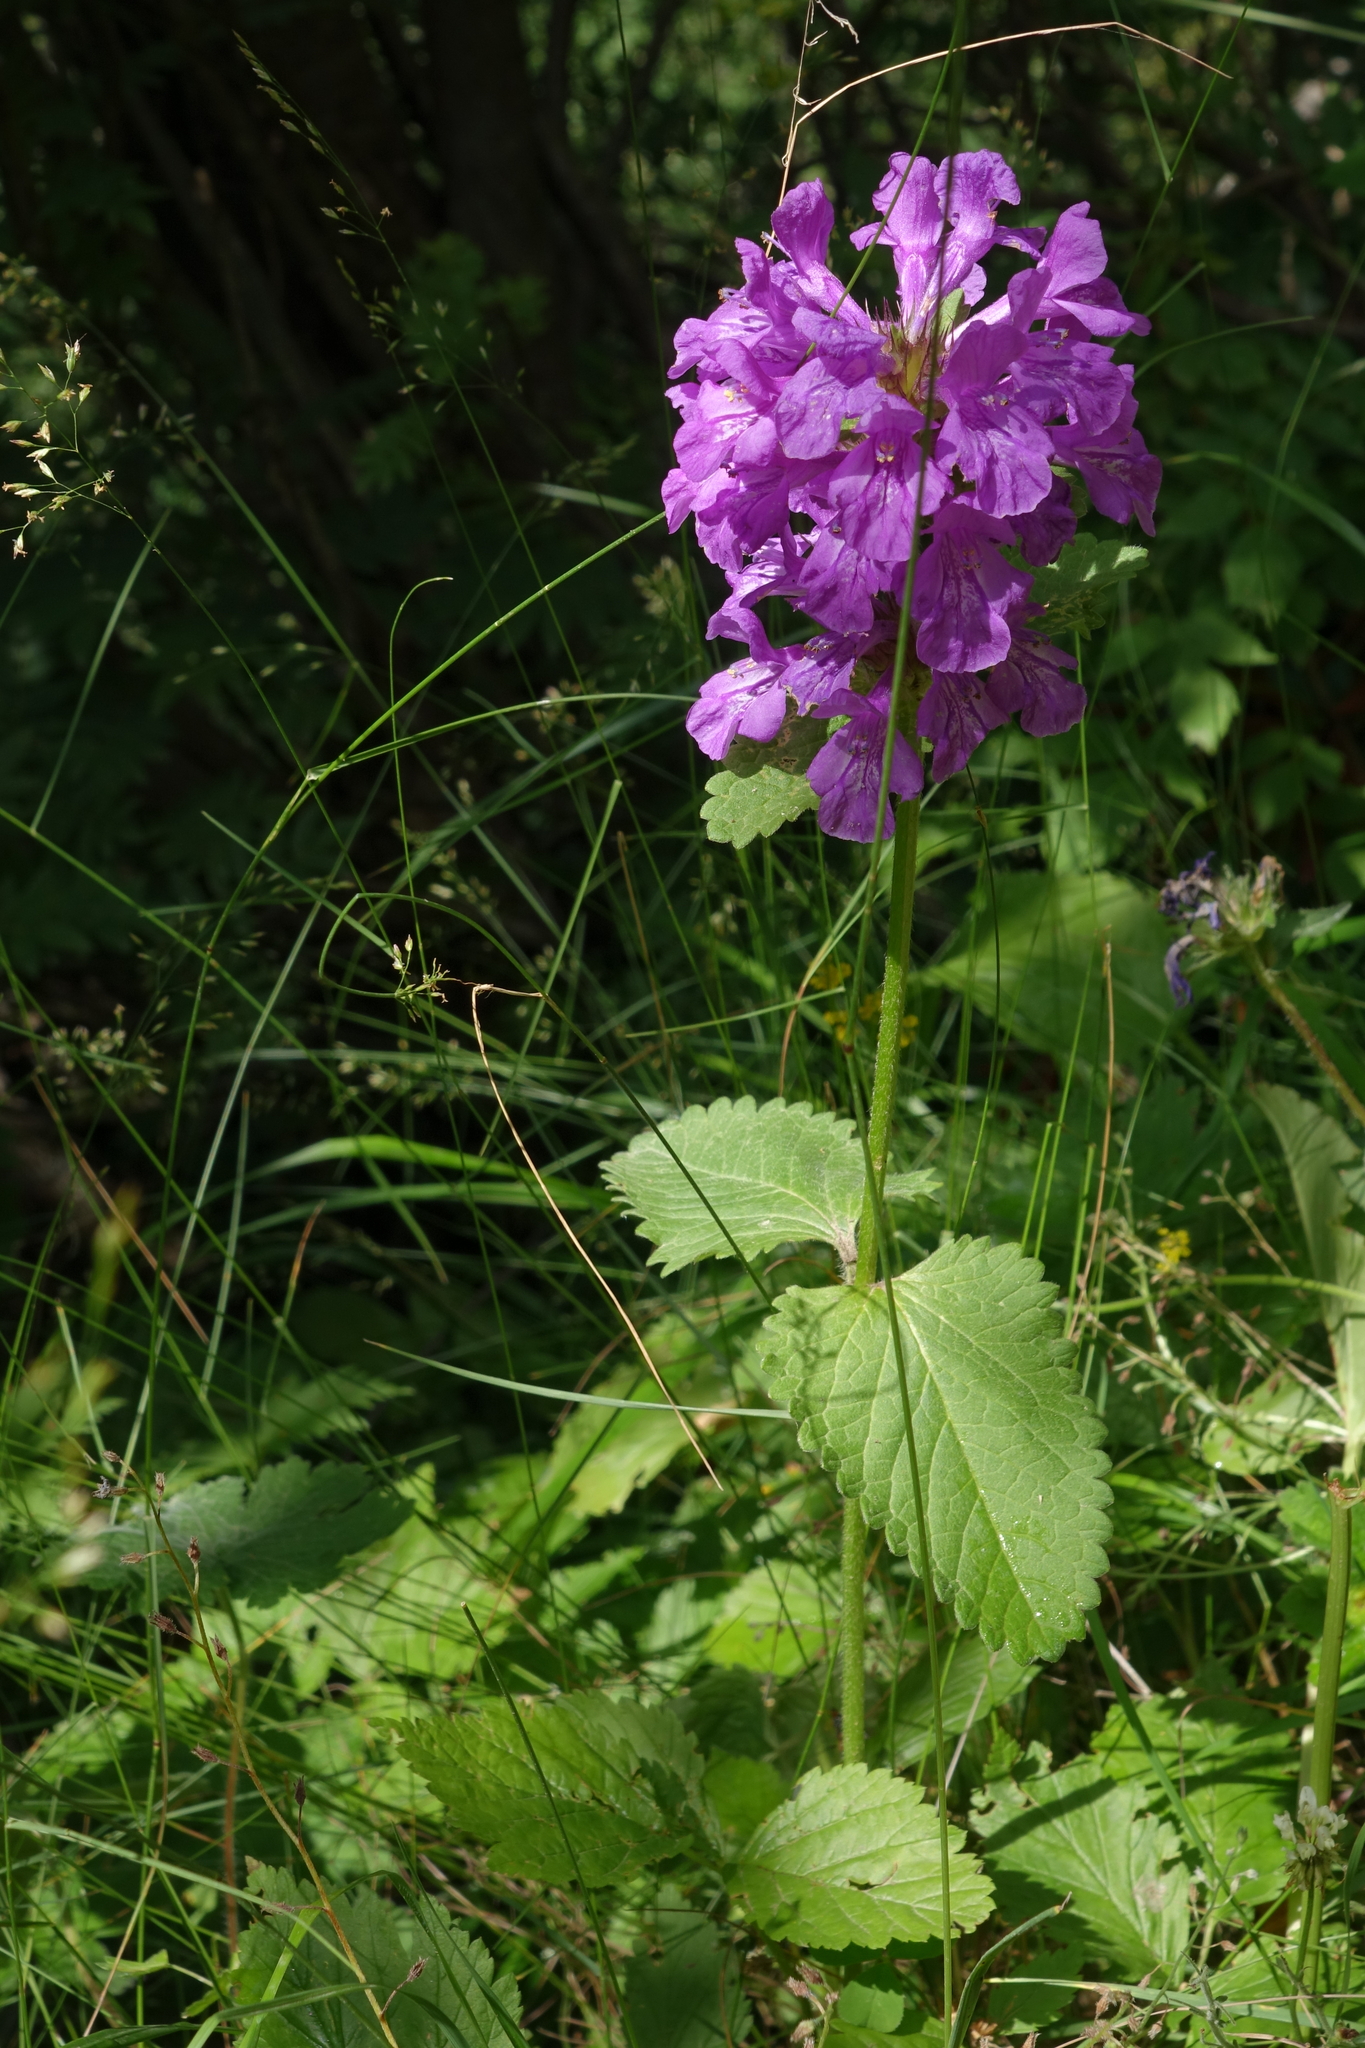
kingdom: Plantae
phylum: Tracheophyta
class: Magnoliopsida
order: Lamiales
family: Lamiaceae
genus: Betonica
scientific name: Betonica macrantha
